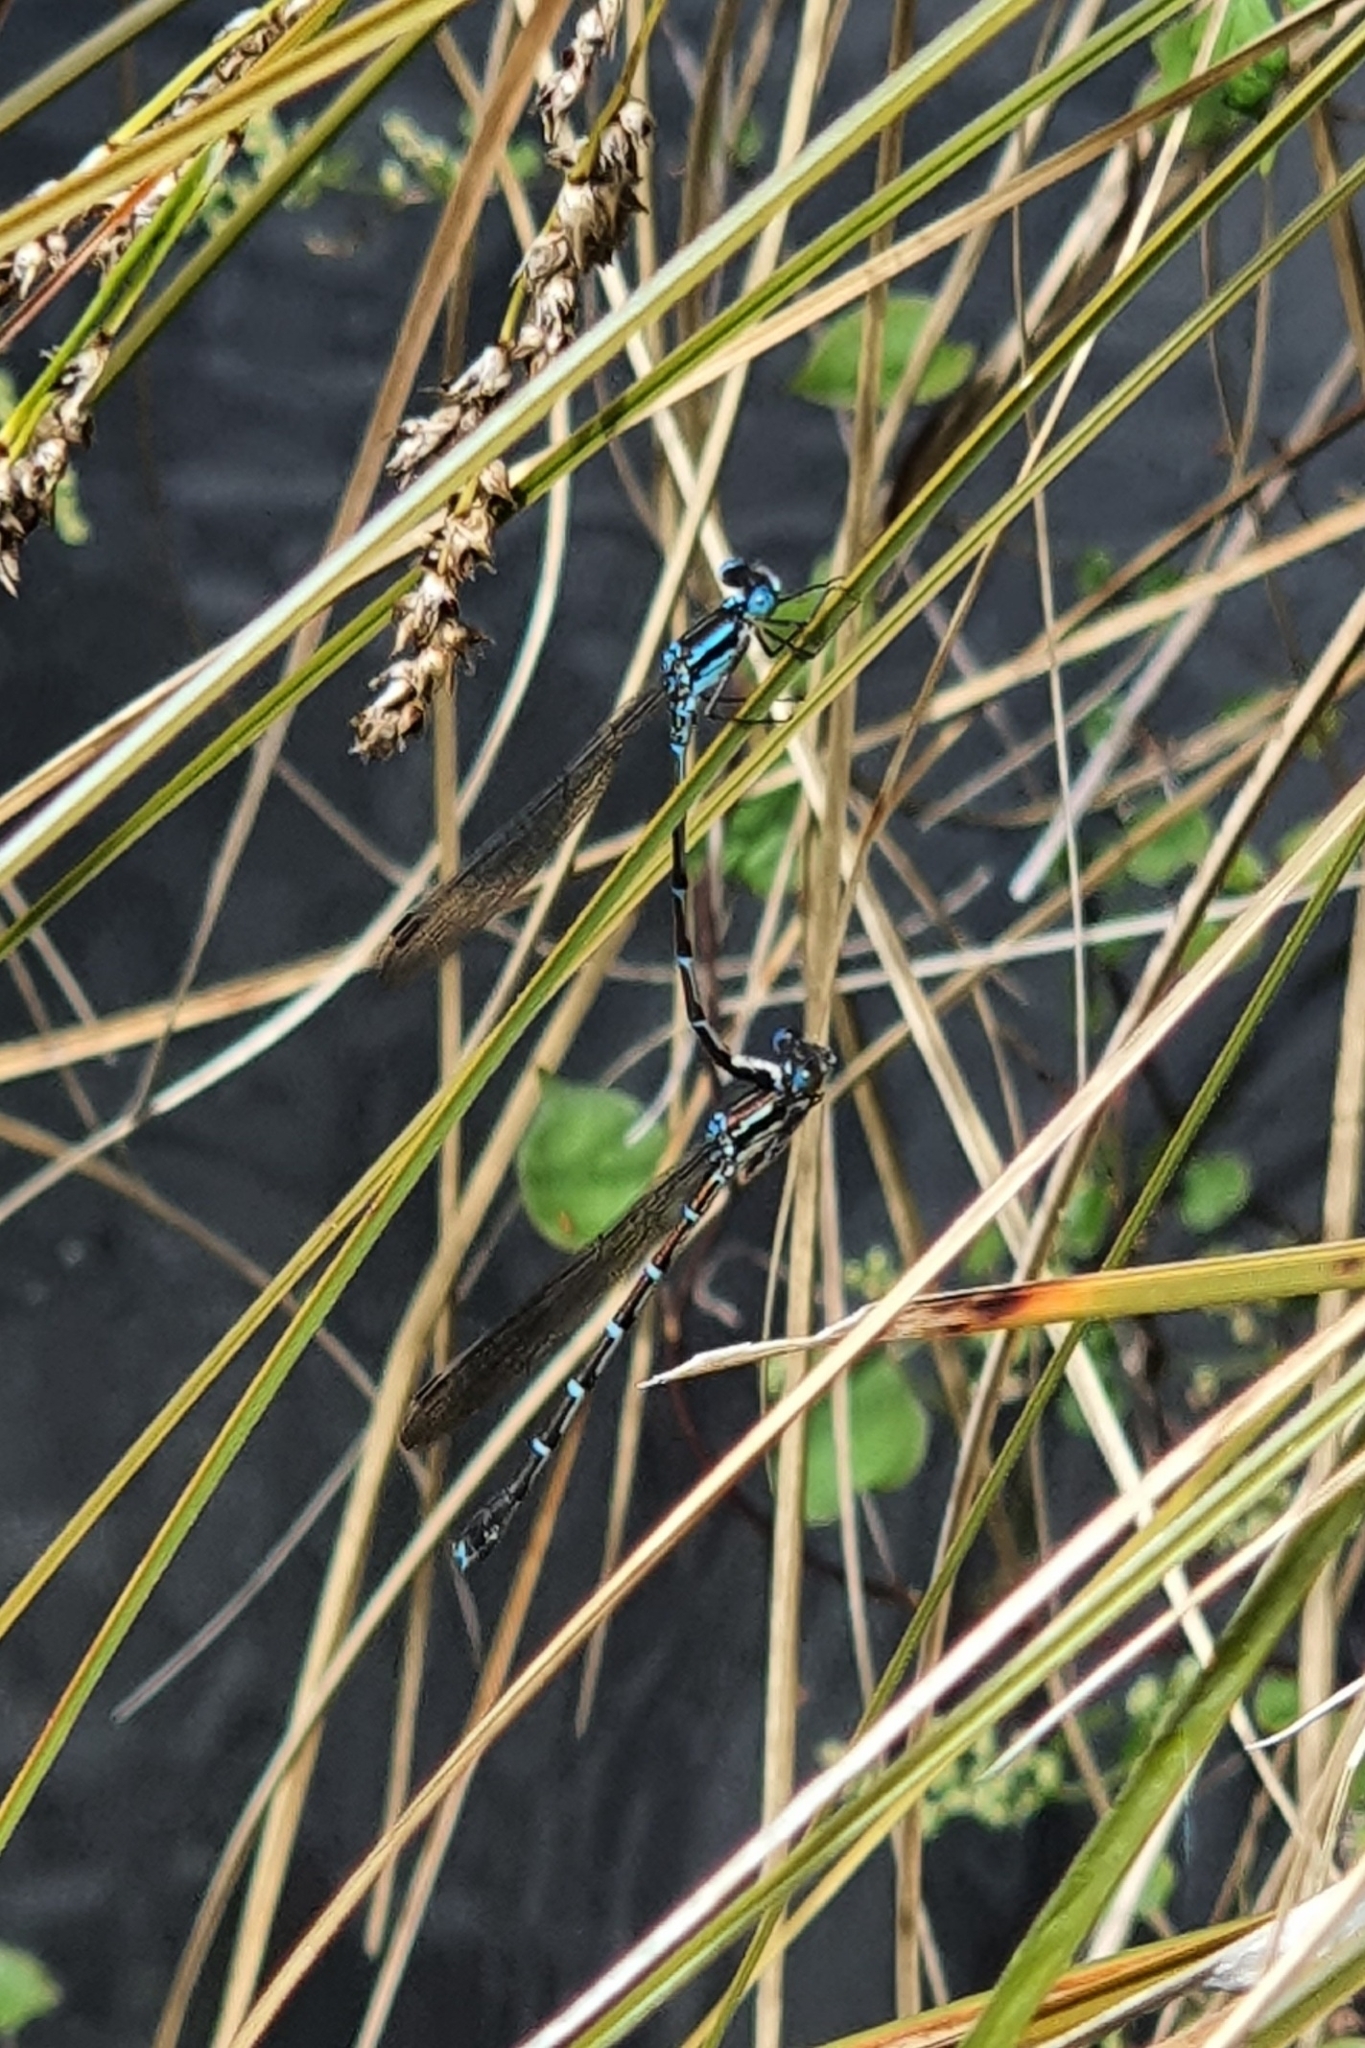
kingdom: Animalia
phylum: Arthropoda
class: Insecta
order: Odonata
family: Lestidae
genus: Austrolestes
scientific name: Austrolestes colensonis
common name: Blue damselfly
